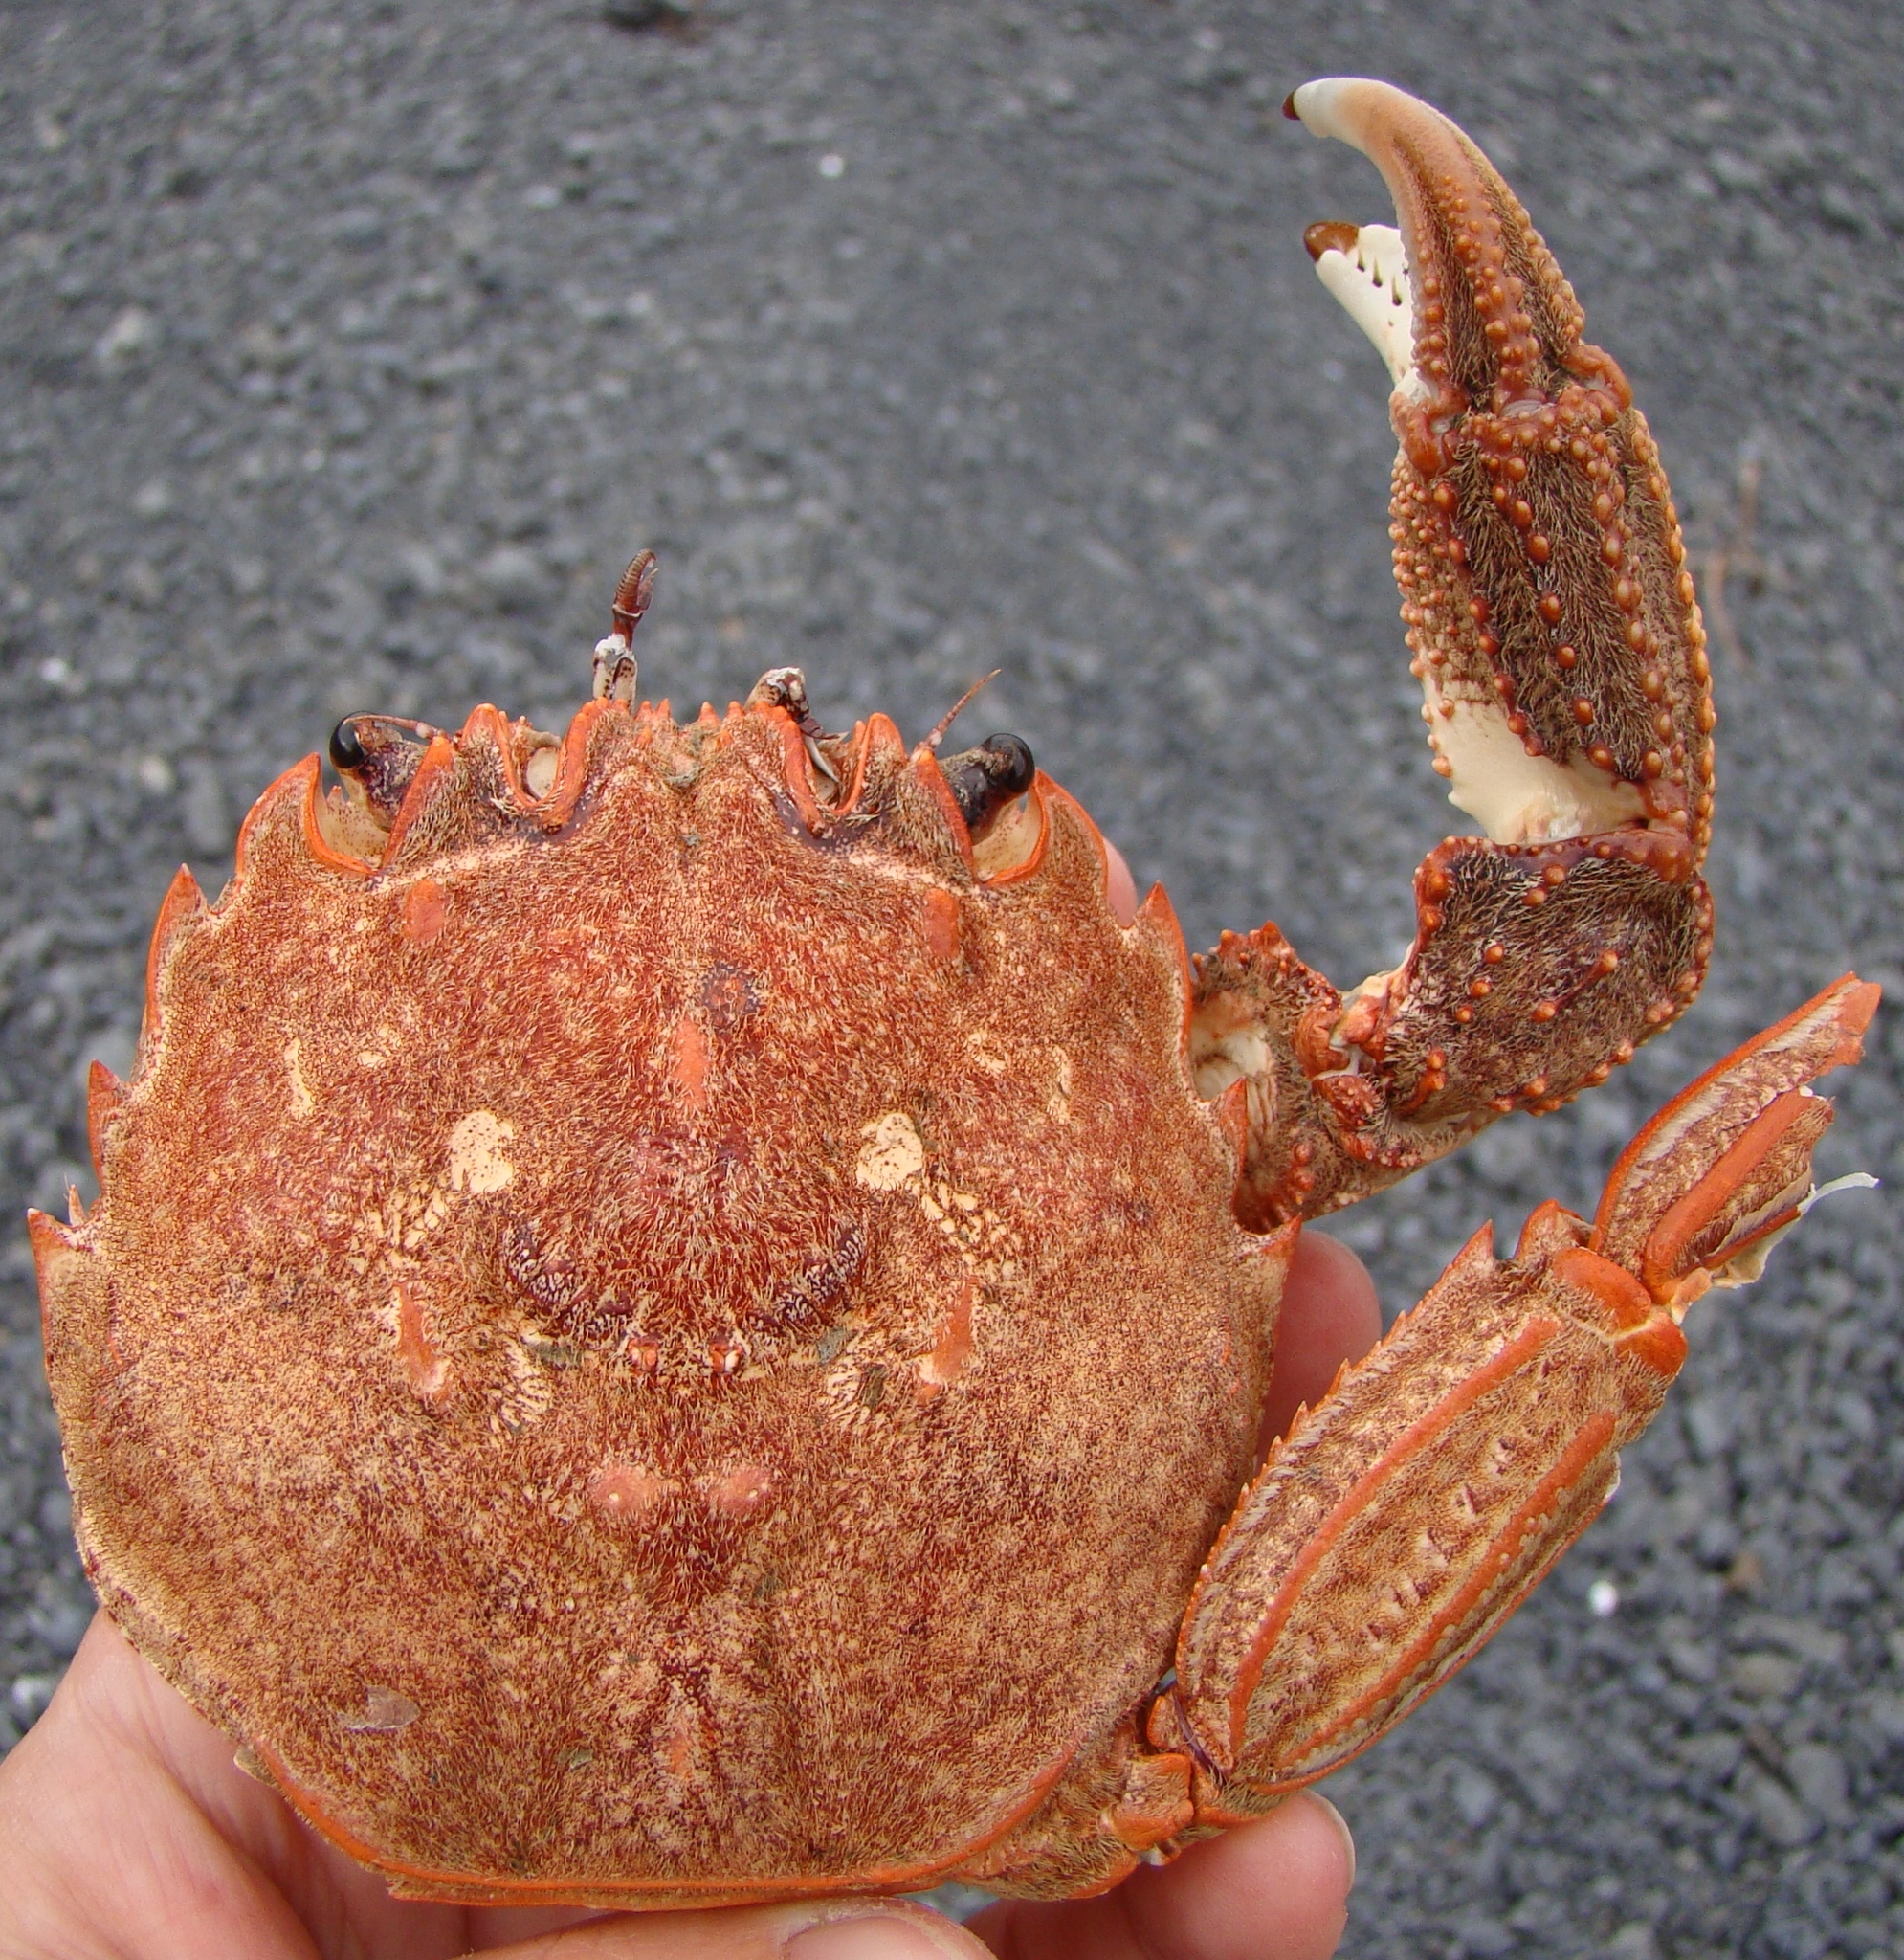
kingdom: Animalia
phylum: Arthropoda
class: Malacostraca
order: Decapoda
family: Plagusiidae
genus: Guinusia
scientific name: Guinusia chabrus
